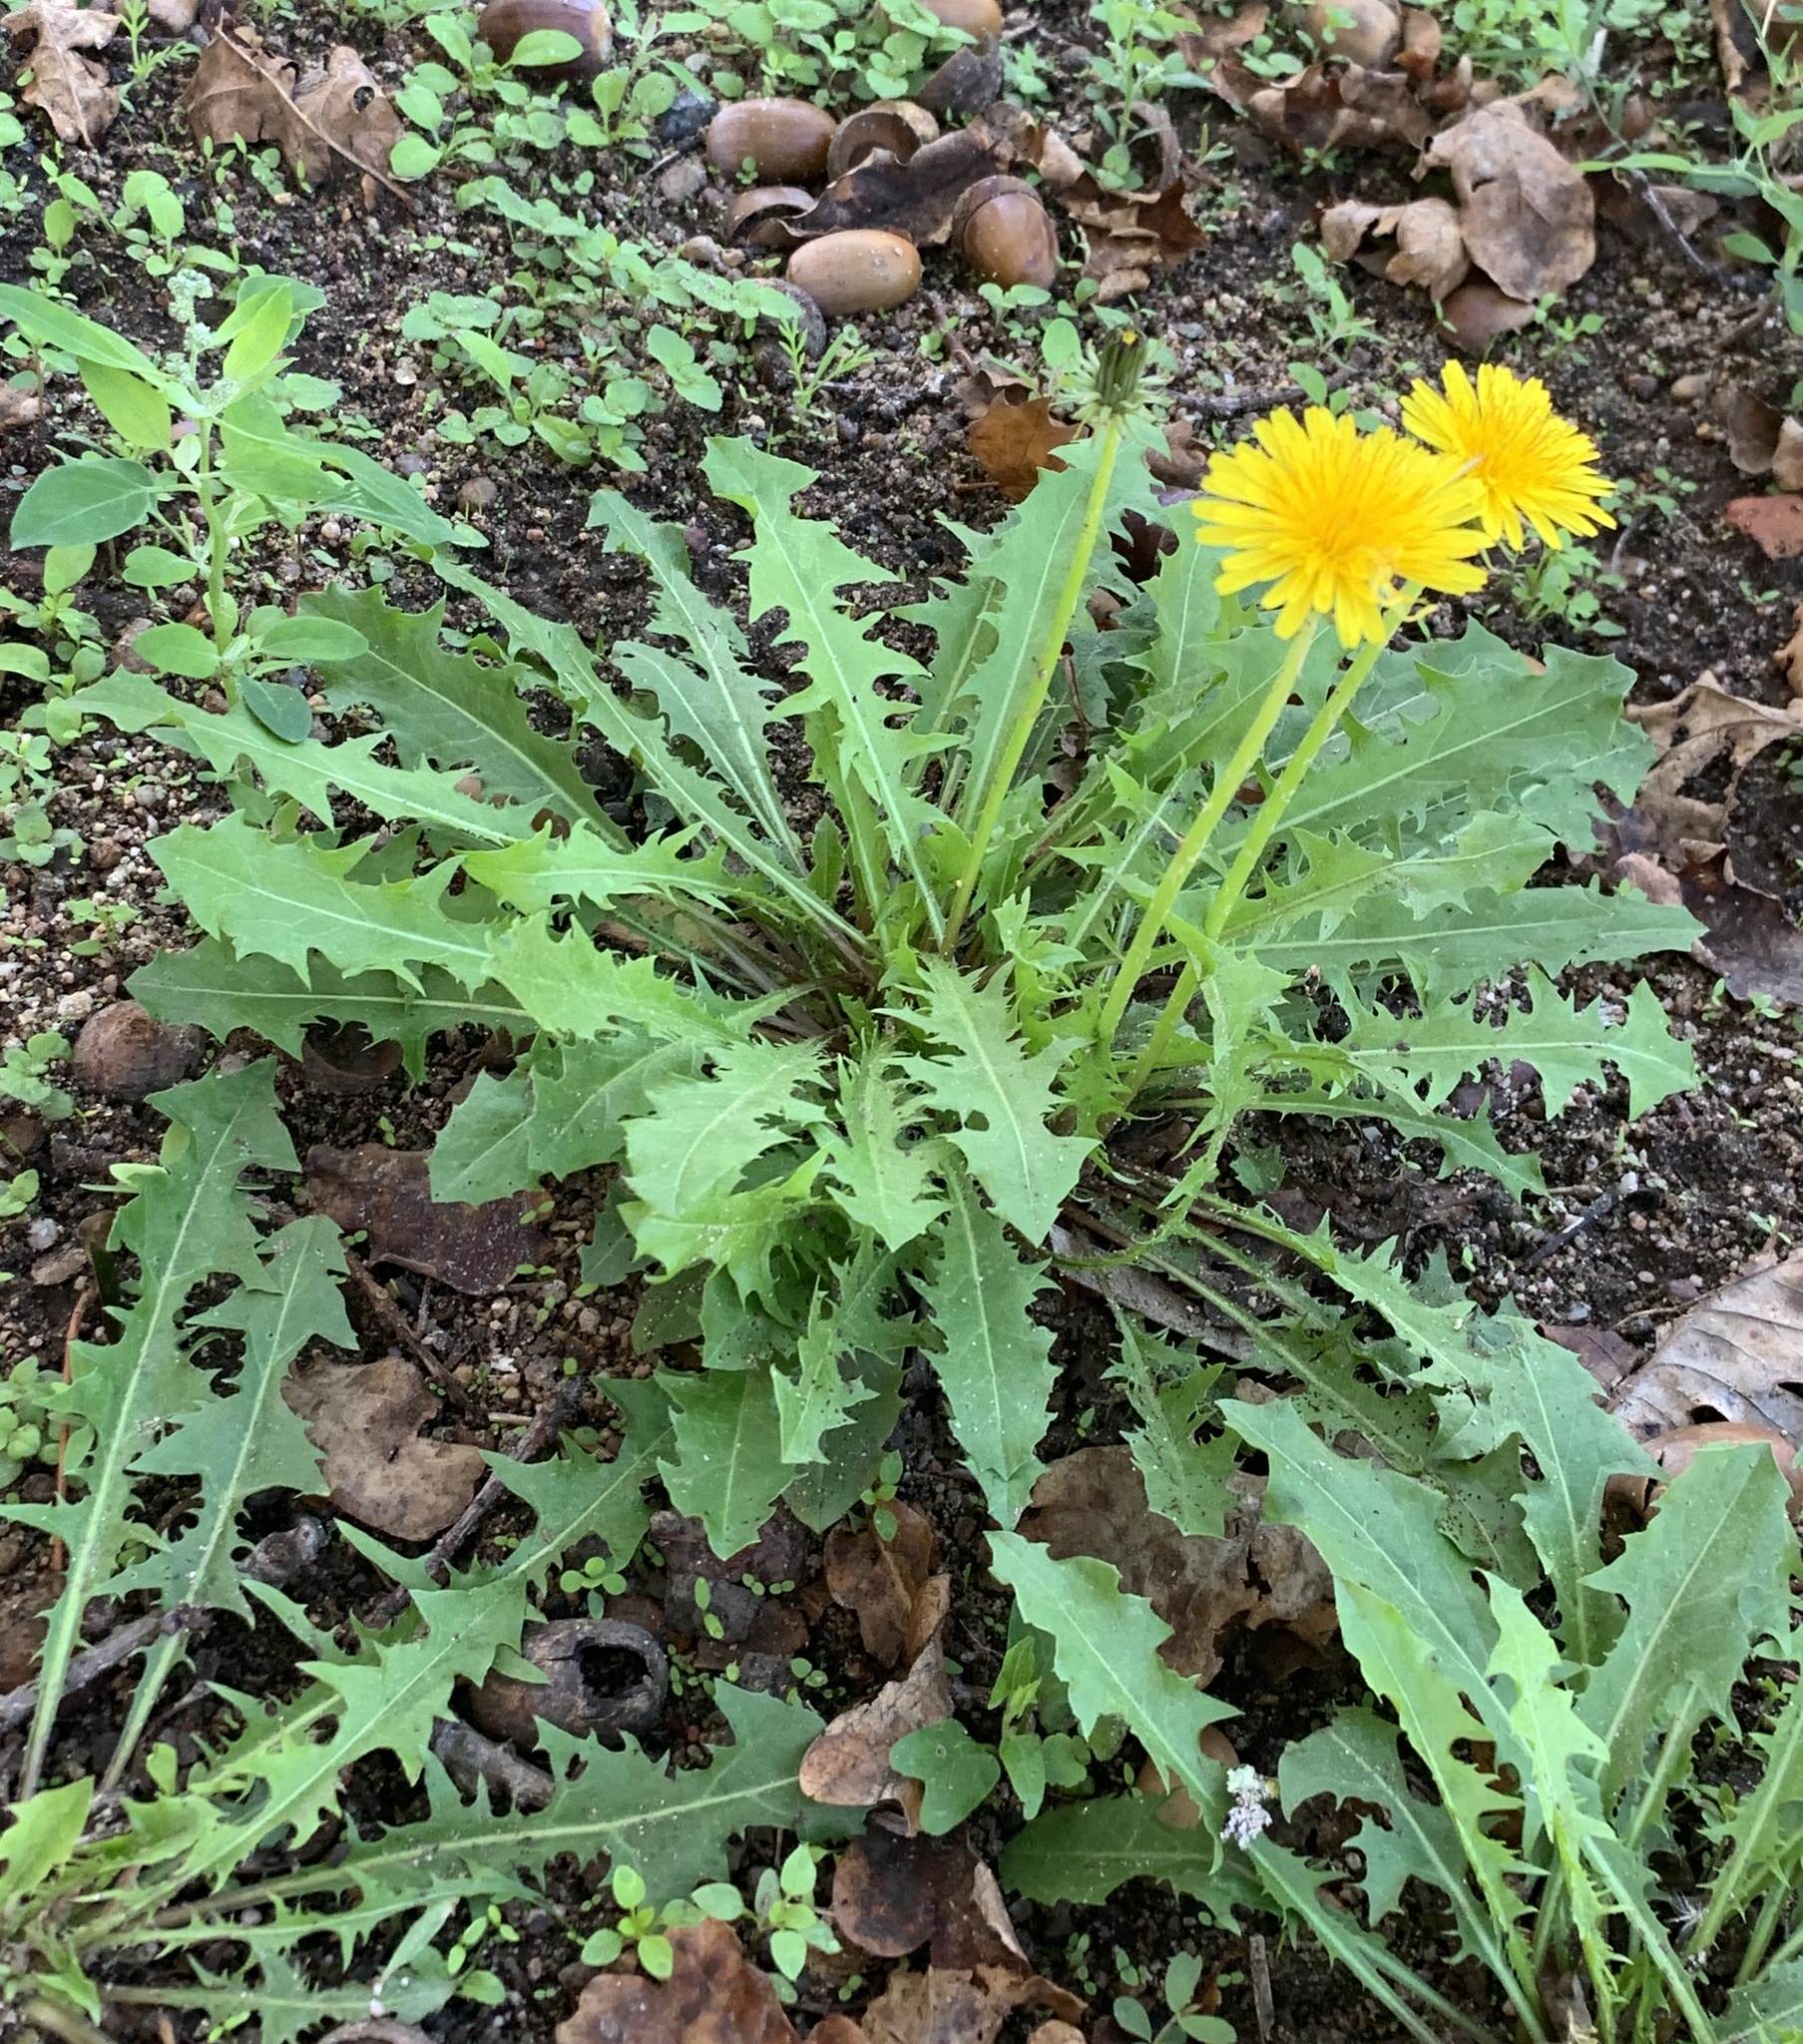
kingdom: Plantae
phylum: Tracheophyta
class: Magnoliopsida
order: Asterales
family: Asteraceae
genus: Taraxacum
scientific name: Taraxacum officinale
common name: Common dandelion
